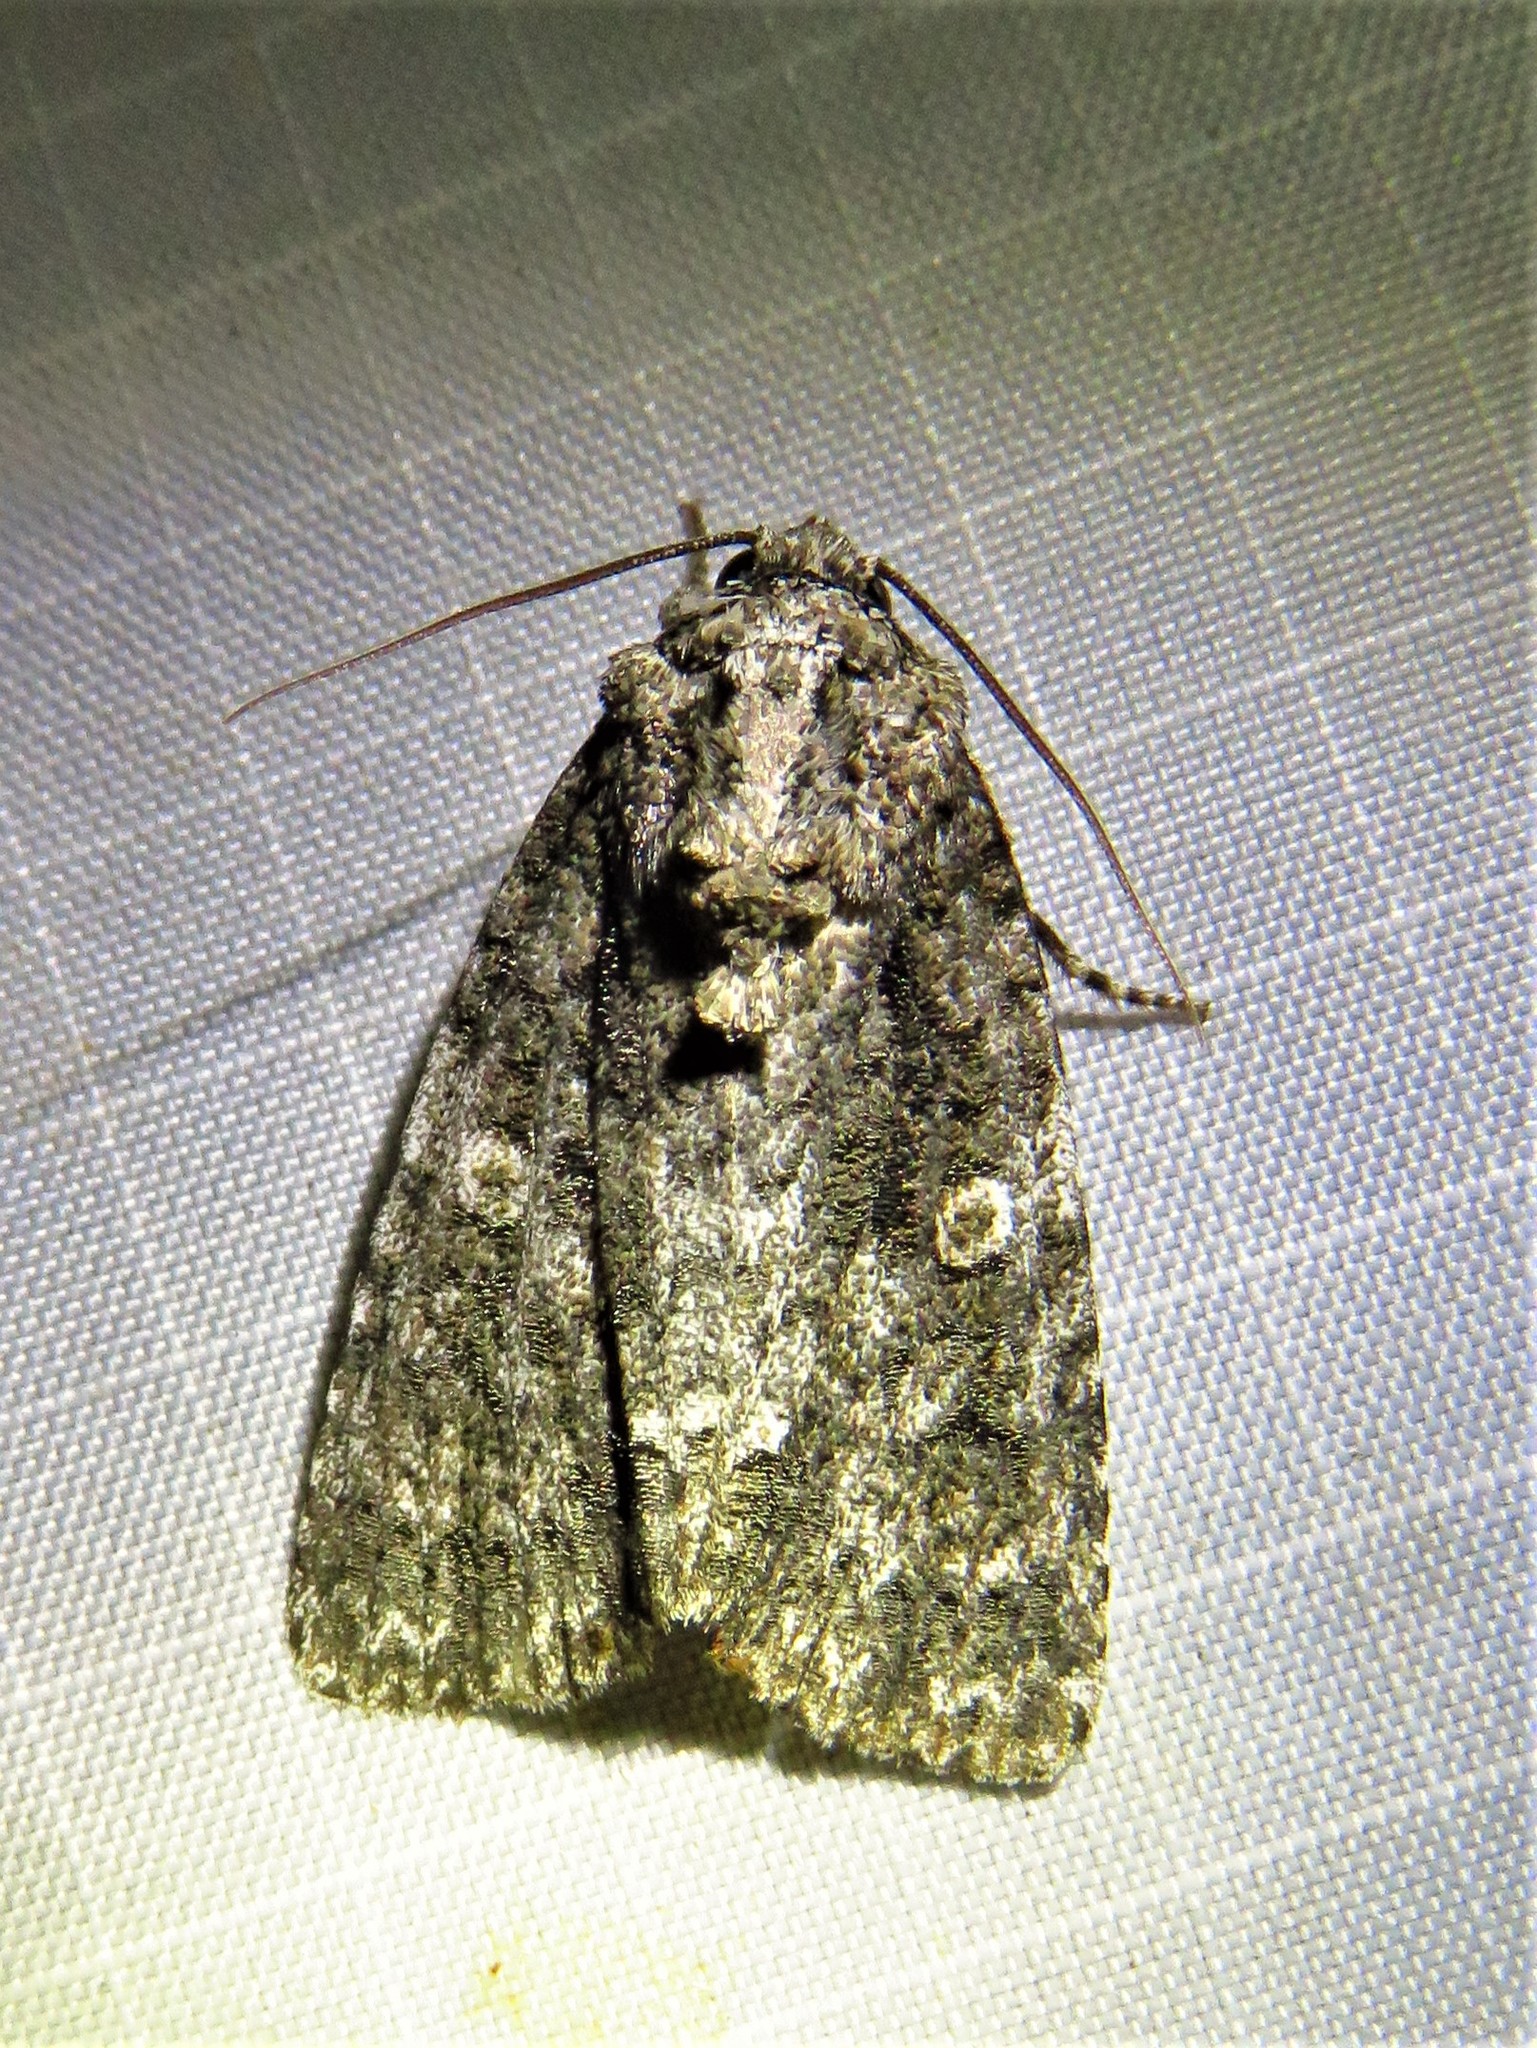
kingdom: Animalia
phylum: Arthropoda
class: Insecta
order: Lepidoptera
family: Noctuidae
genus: Acronicta
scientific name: Acronicta afflicta
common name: Afflicted dagger moth
